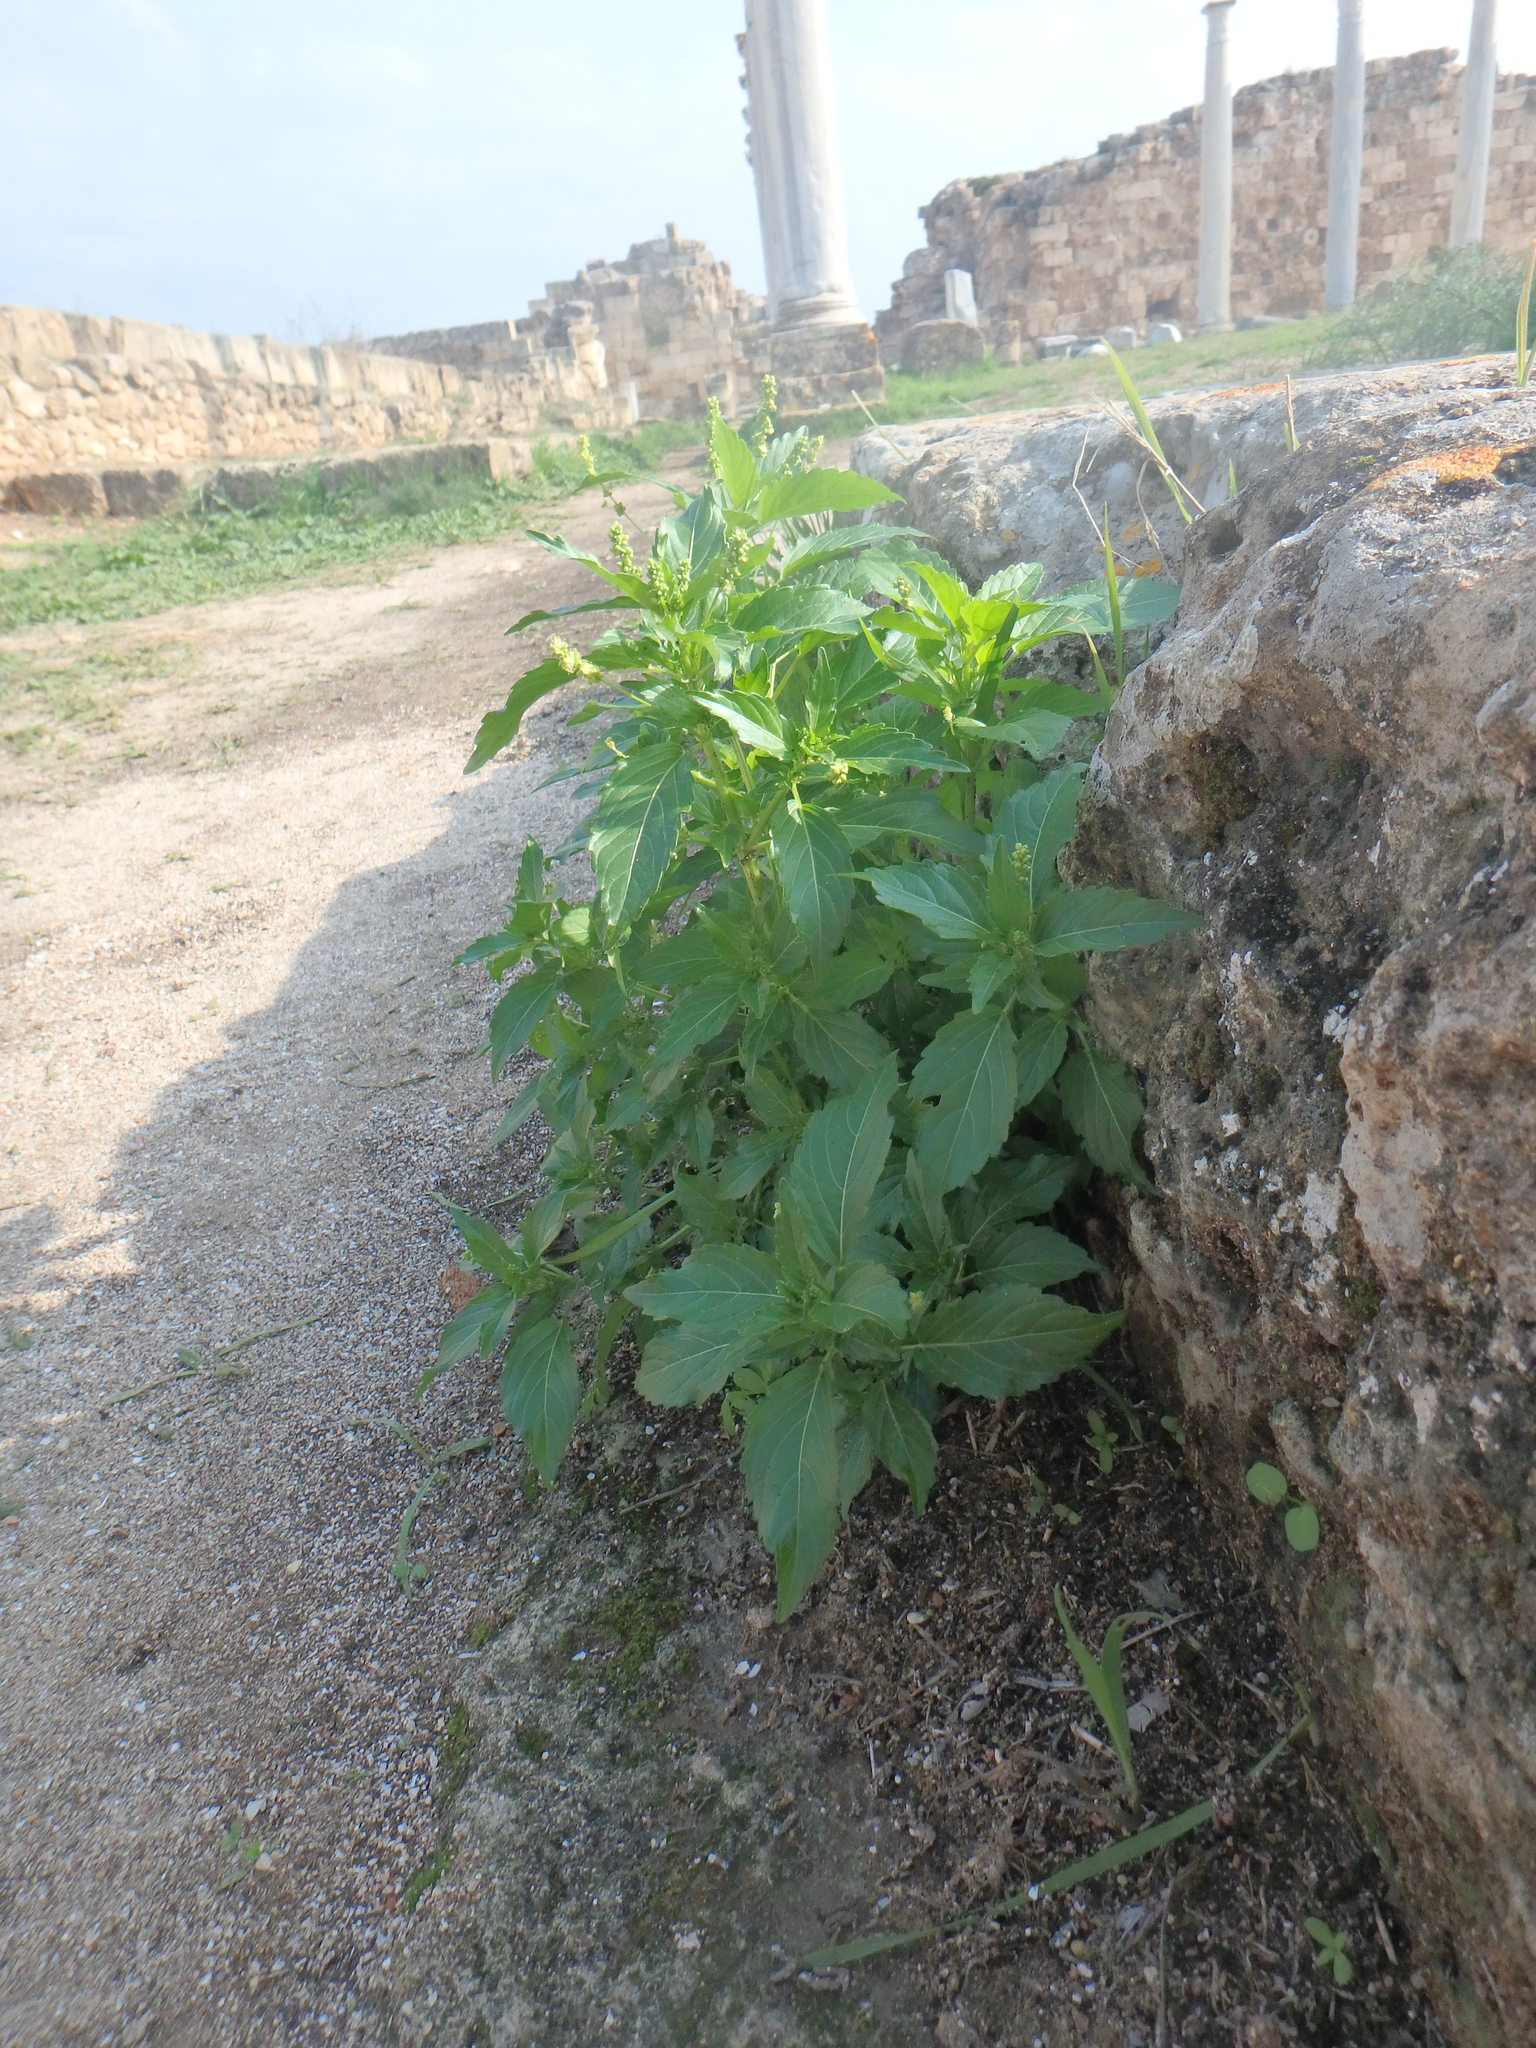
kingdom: Plantae
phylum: Tracheophyta
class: Magnoliopsida
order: Malpighiales
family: Euphorbiaceae
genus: Mercurialis
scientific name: Mercurialis annua
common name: Annual mercury
